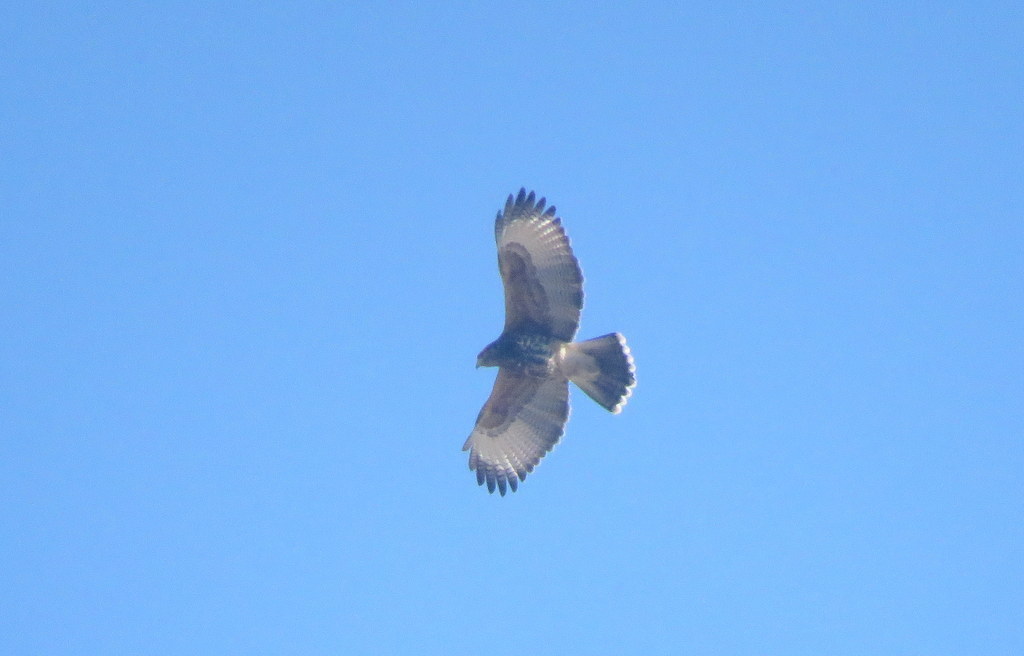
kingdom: Animalia
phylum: Chordata
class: Aves
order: Accipitriformes
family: Accipitridae
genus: Parabuteo
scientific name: Parabuteo unicinctus
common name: Harris's hawk
